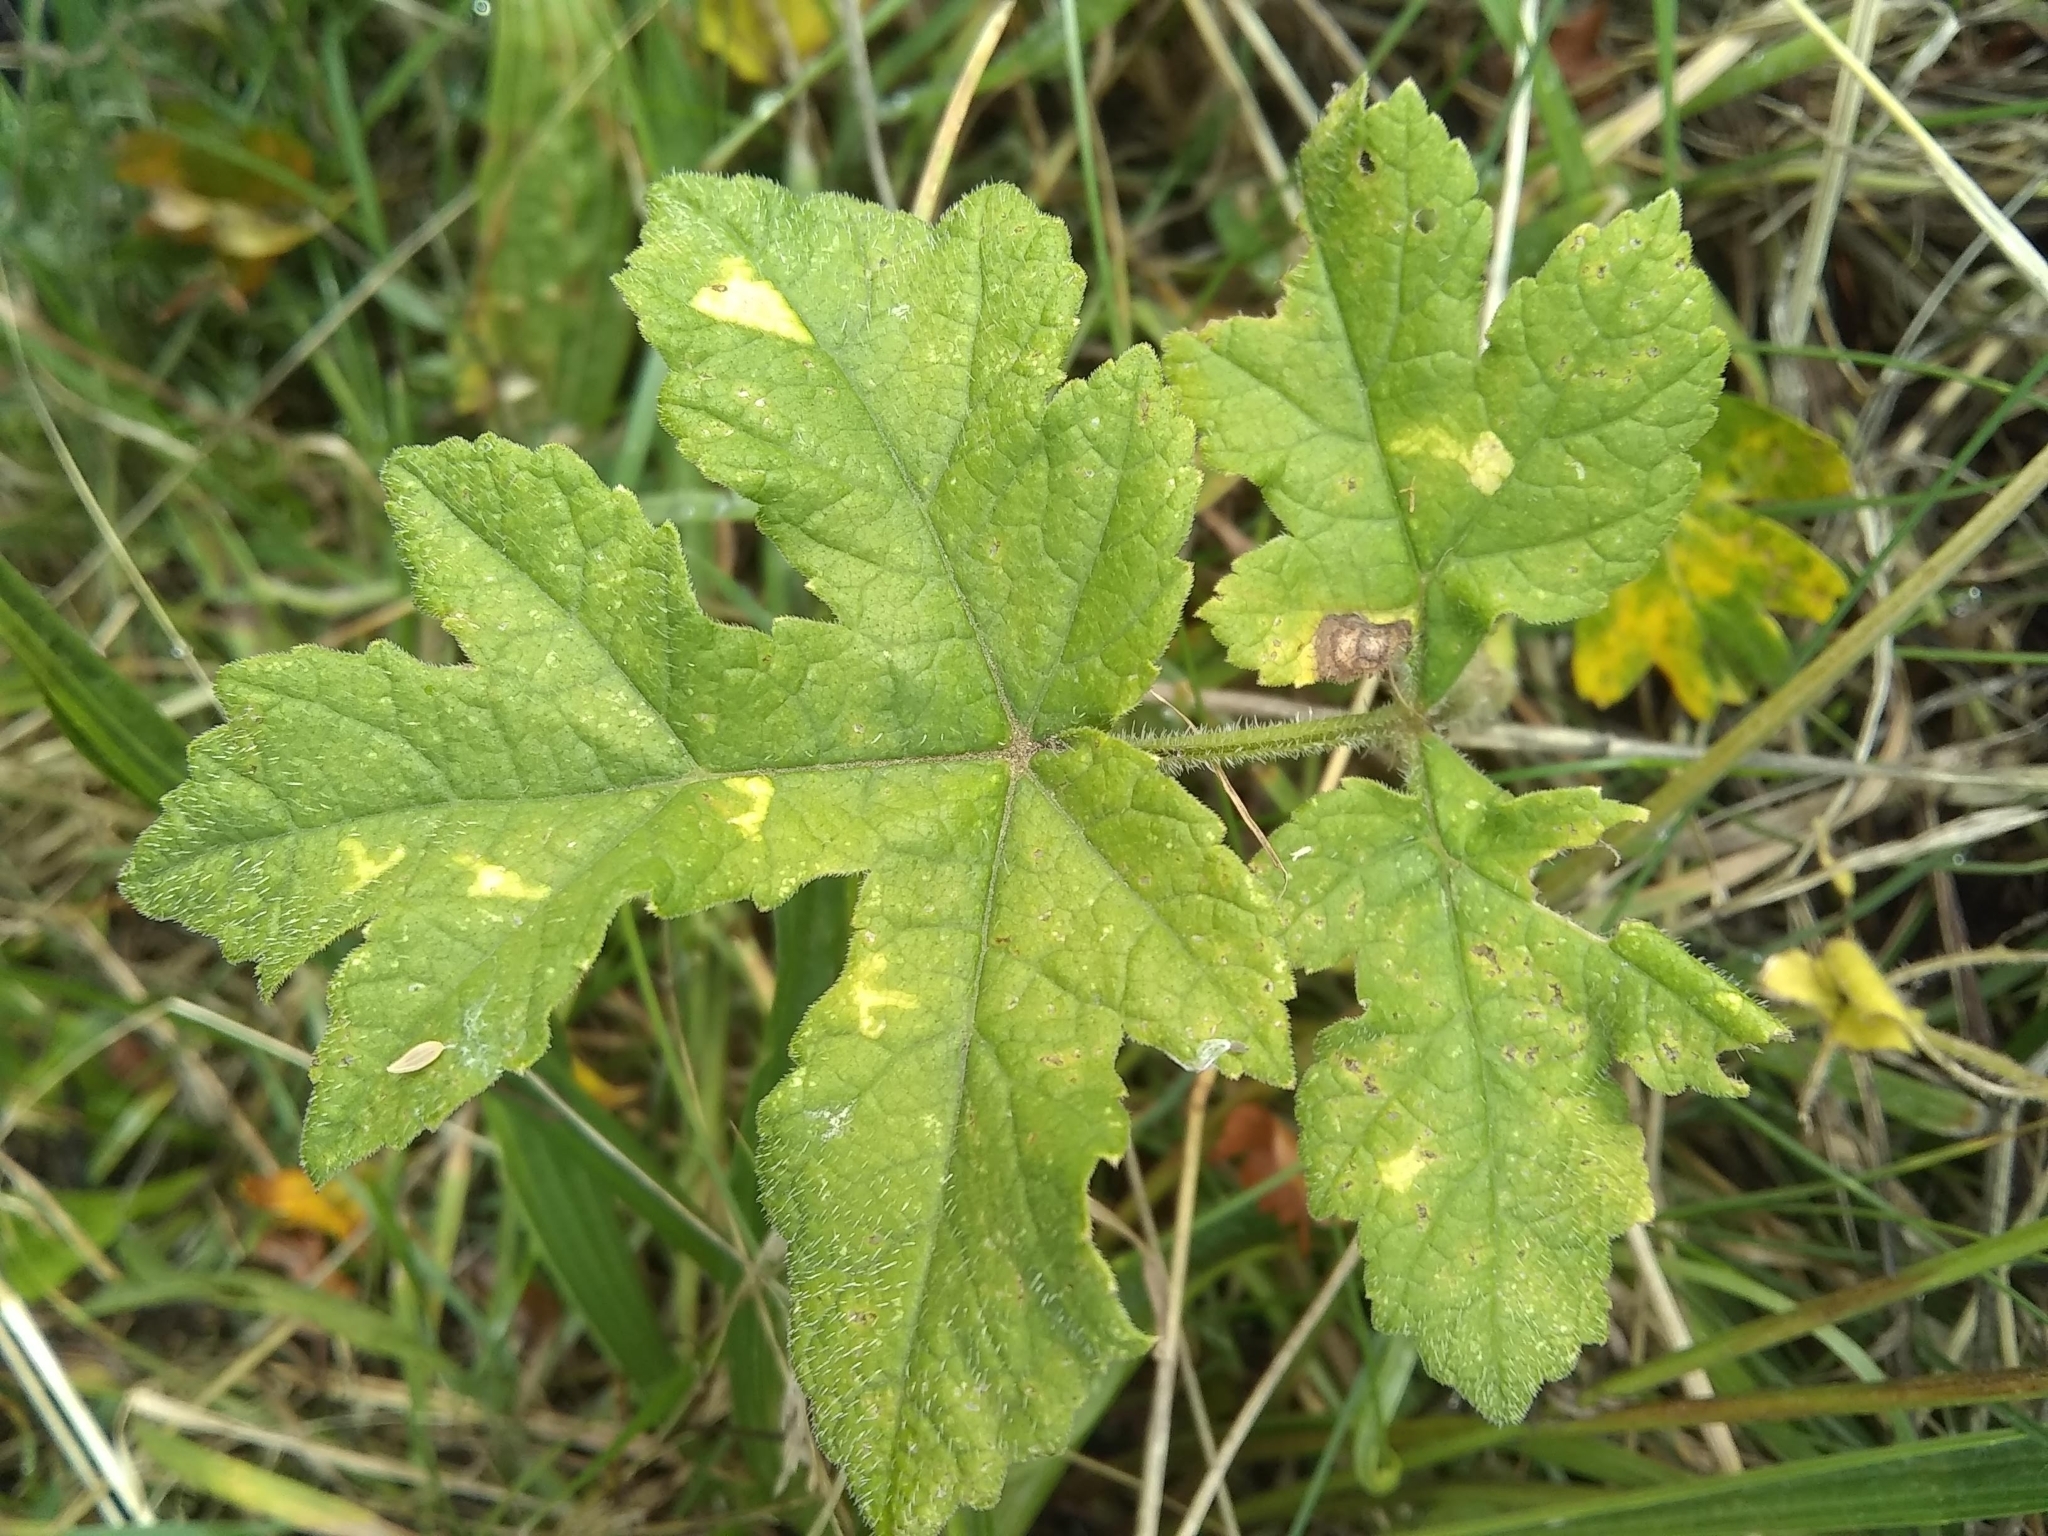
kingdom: Plantae
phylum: Tracheophyta
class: Magnoliopsida
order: Apiales
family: Apiaceae
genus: Heracleum
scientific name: Heracleum sphondylium
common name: Hogweed
